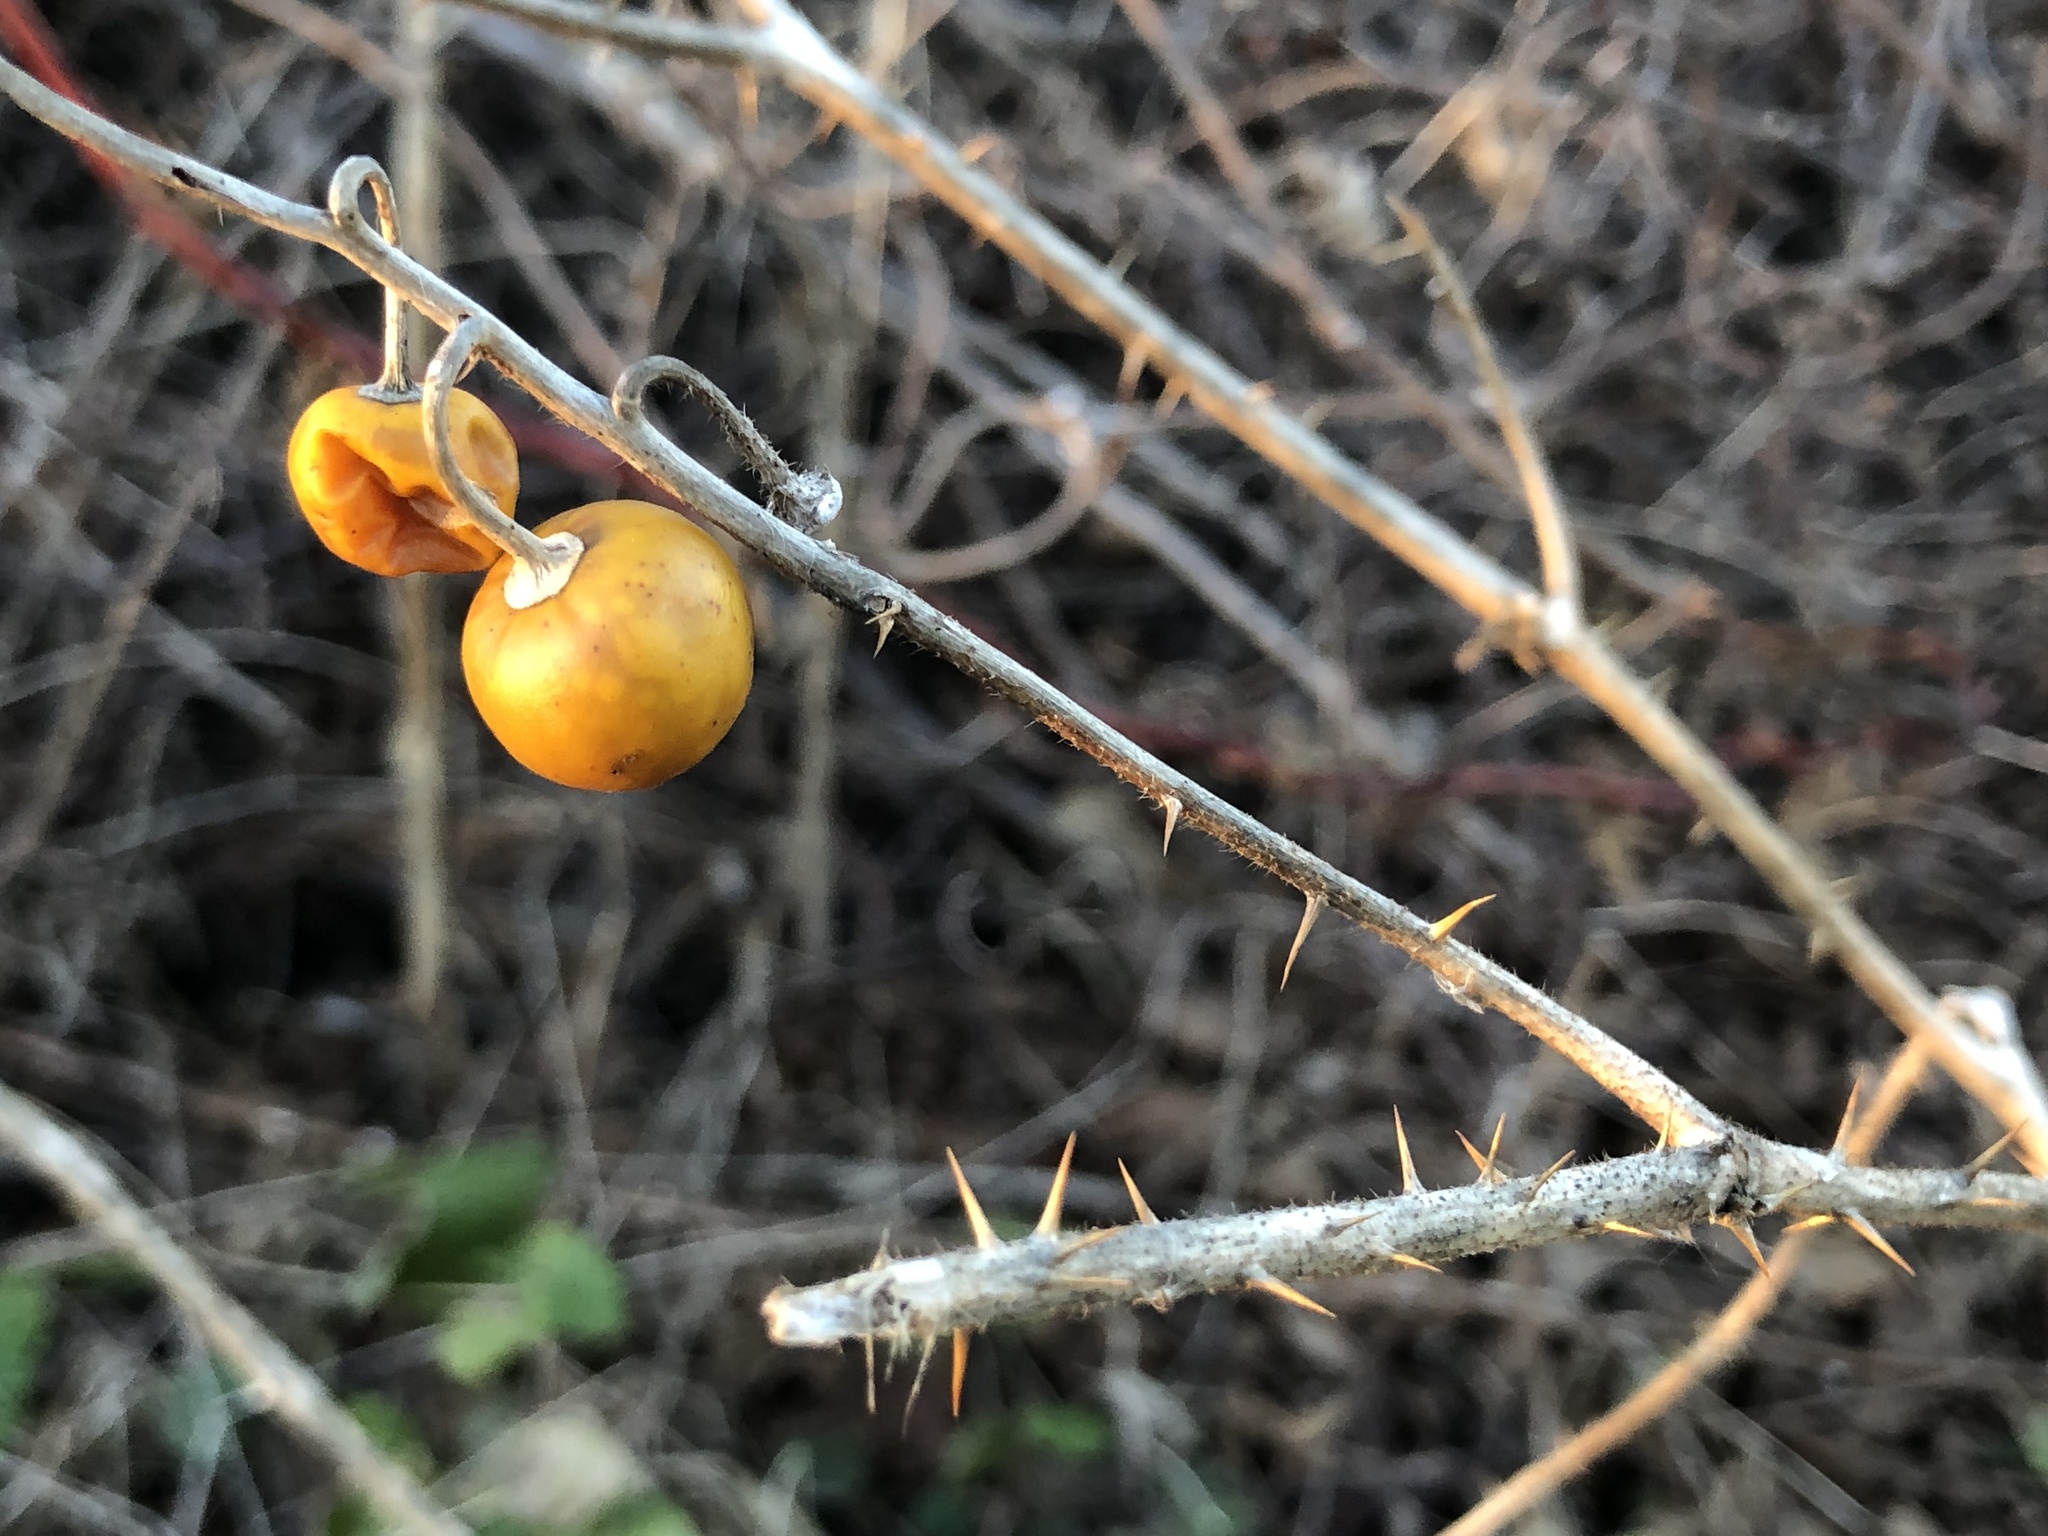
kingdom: Plantae
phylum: Tracheophyta
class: Magnoliopsida
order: Solanales
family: Solanaceae
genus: Solanum
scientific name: Solanum carolinense
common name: Horse-nettle
